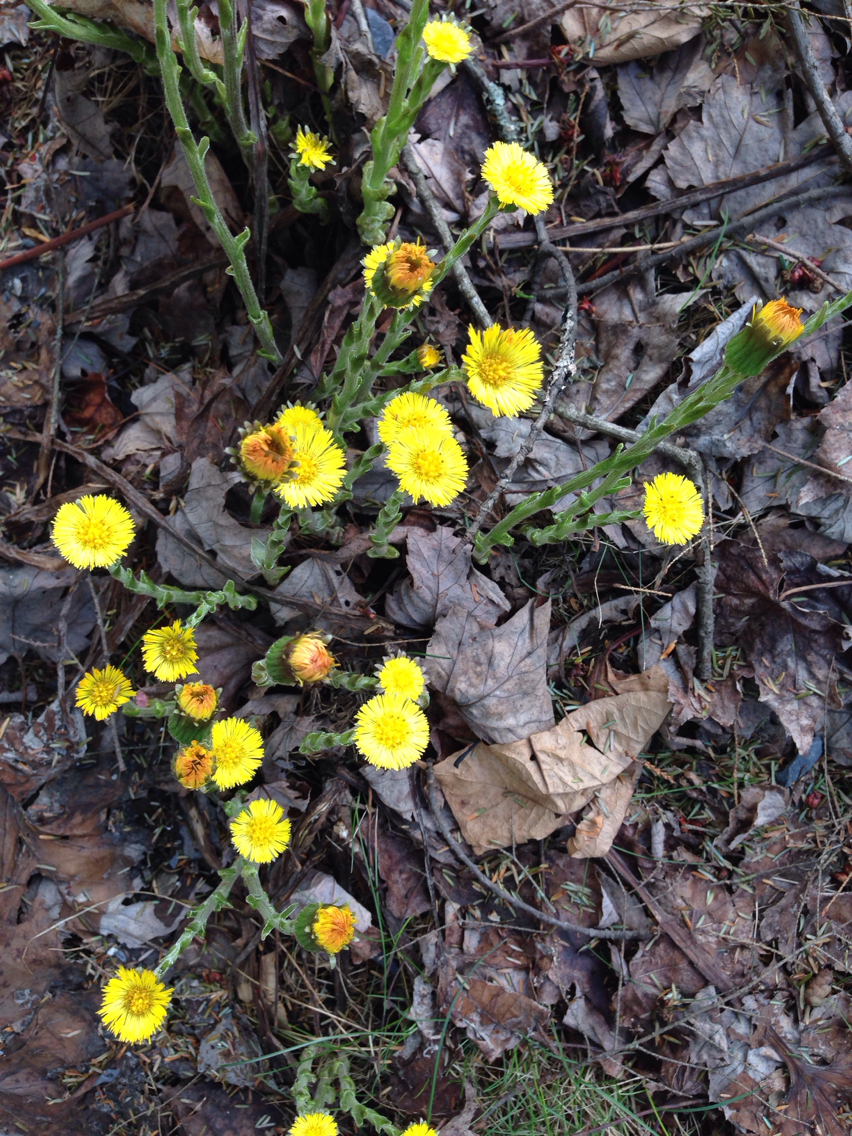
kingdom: Plantae
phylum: Tracheophyta
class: Magnoliopsida
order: Asterales
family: Asteraceae
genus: Tussilago
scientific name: Tussilago farfara
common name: Coltsfoot
